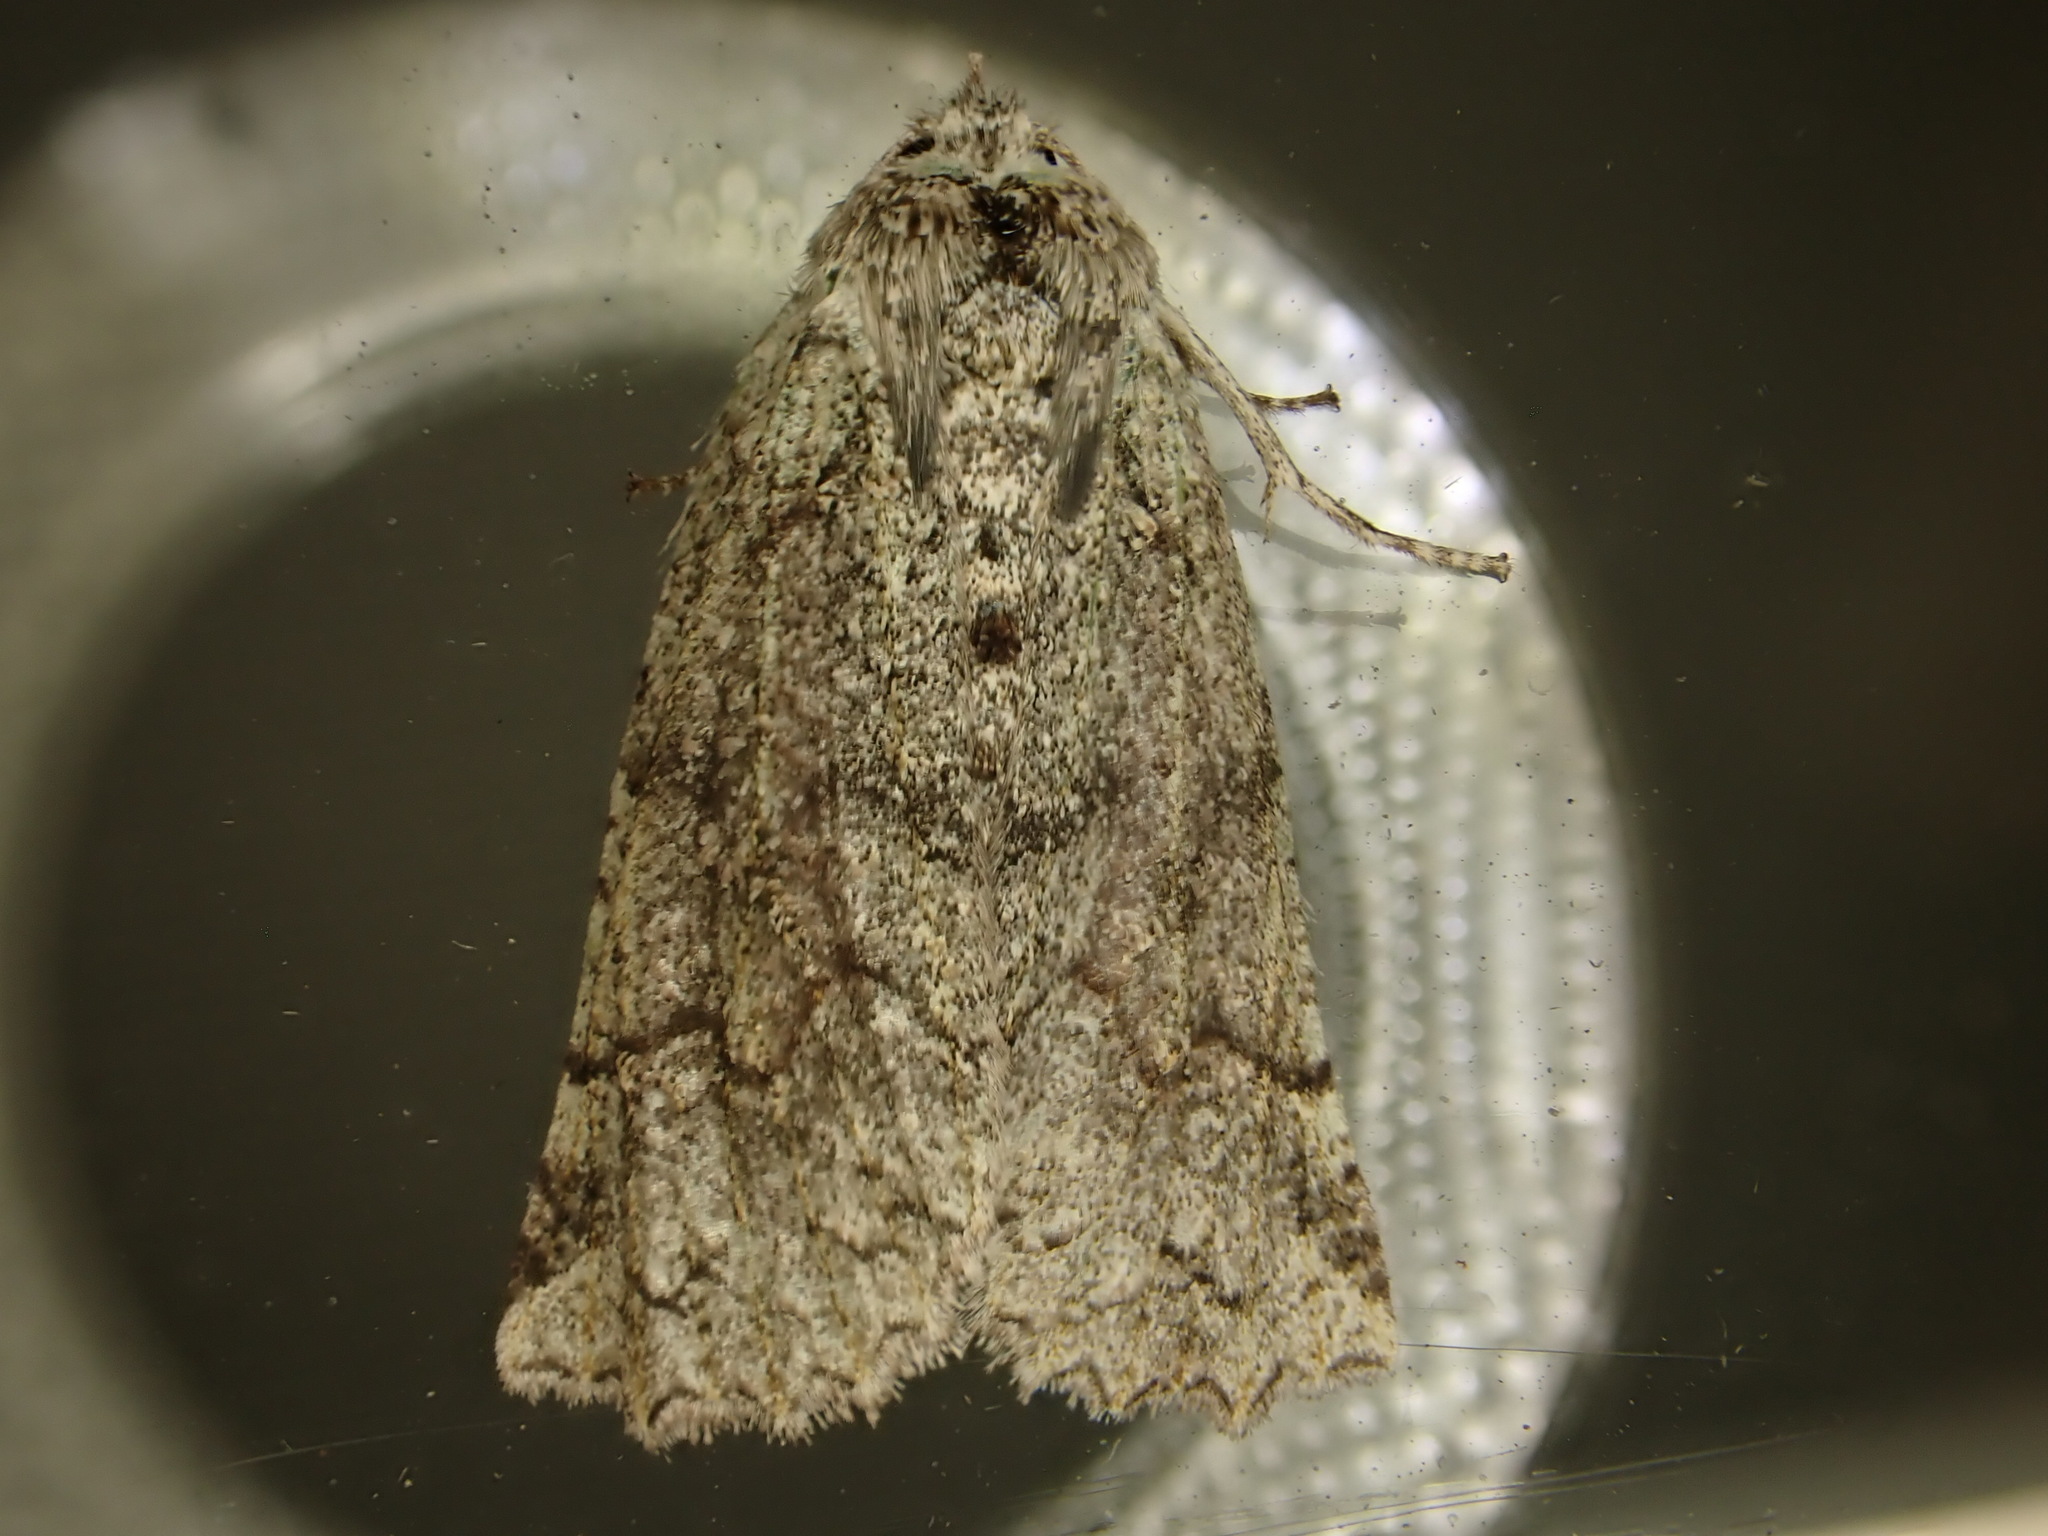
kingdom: Animalia
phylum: Arthropoda
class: Insecta
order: Lepidoptera
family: Geometridae
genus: Declana
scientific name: Declana floccosa
